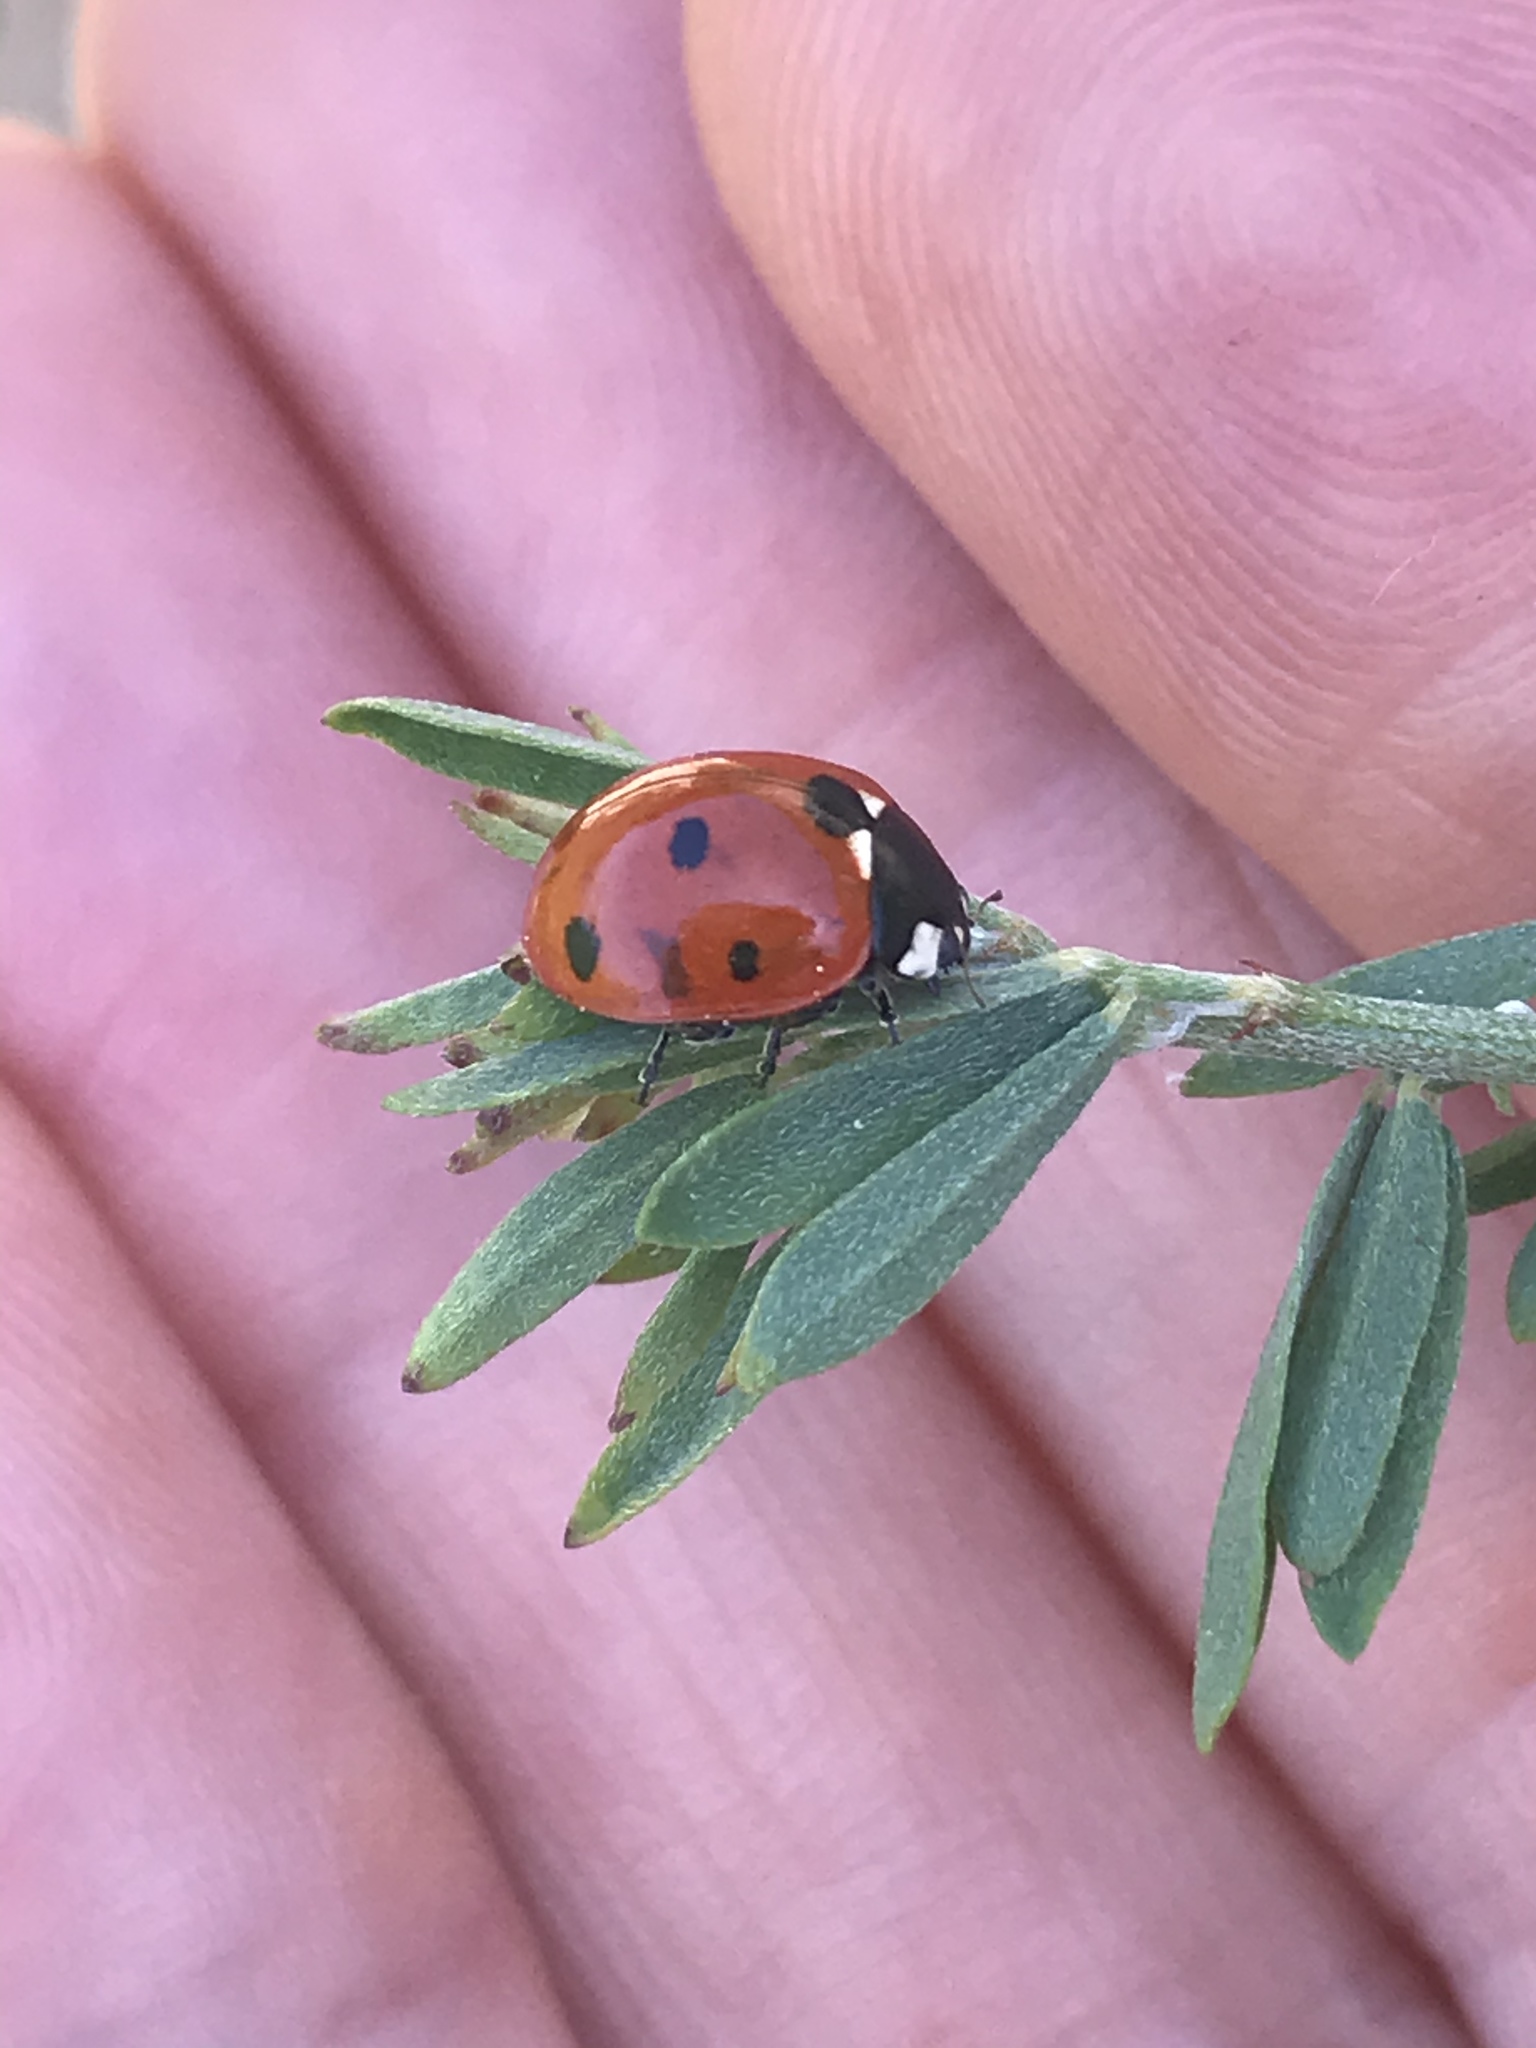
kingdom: Animalia
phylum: Arthropoda
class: Insecta
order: Coleoptera
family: Coccinellidae
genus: Coccinella
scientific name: Coccinella septempunctata
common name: Sevenspotted lady beetle
